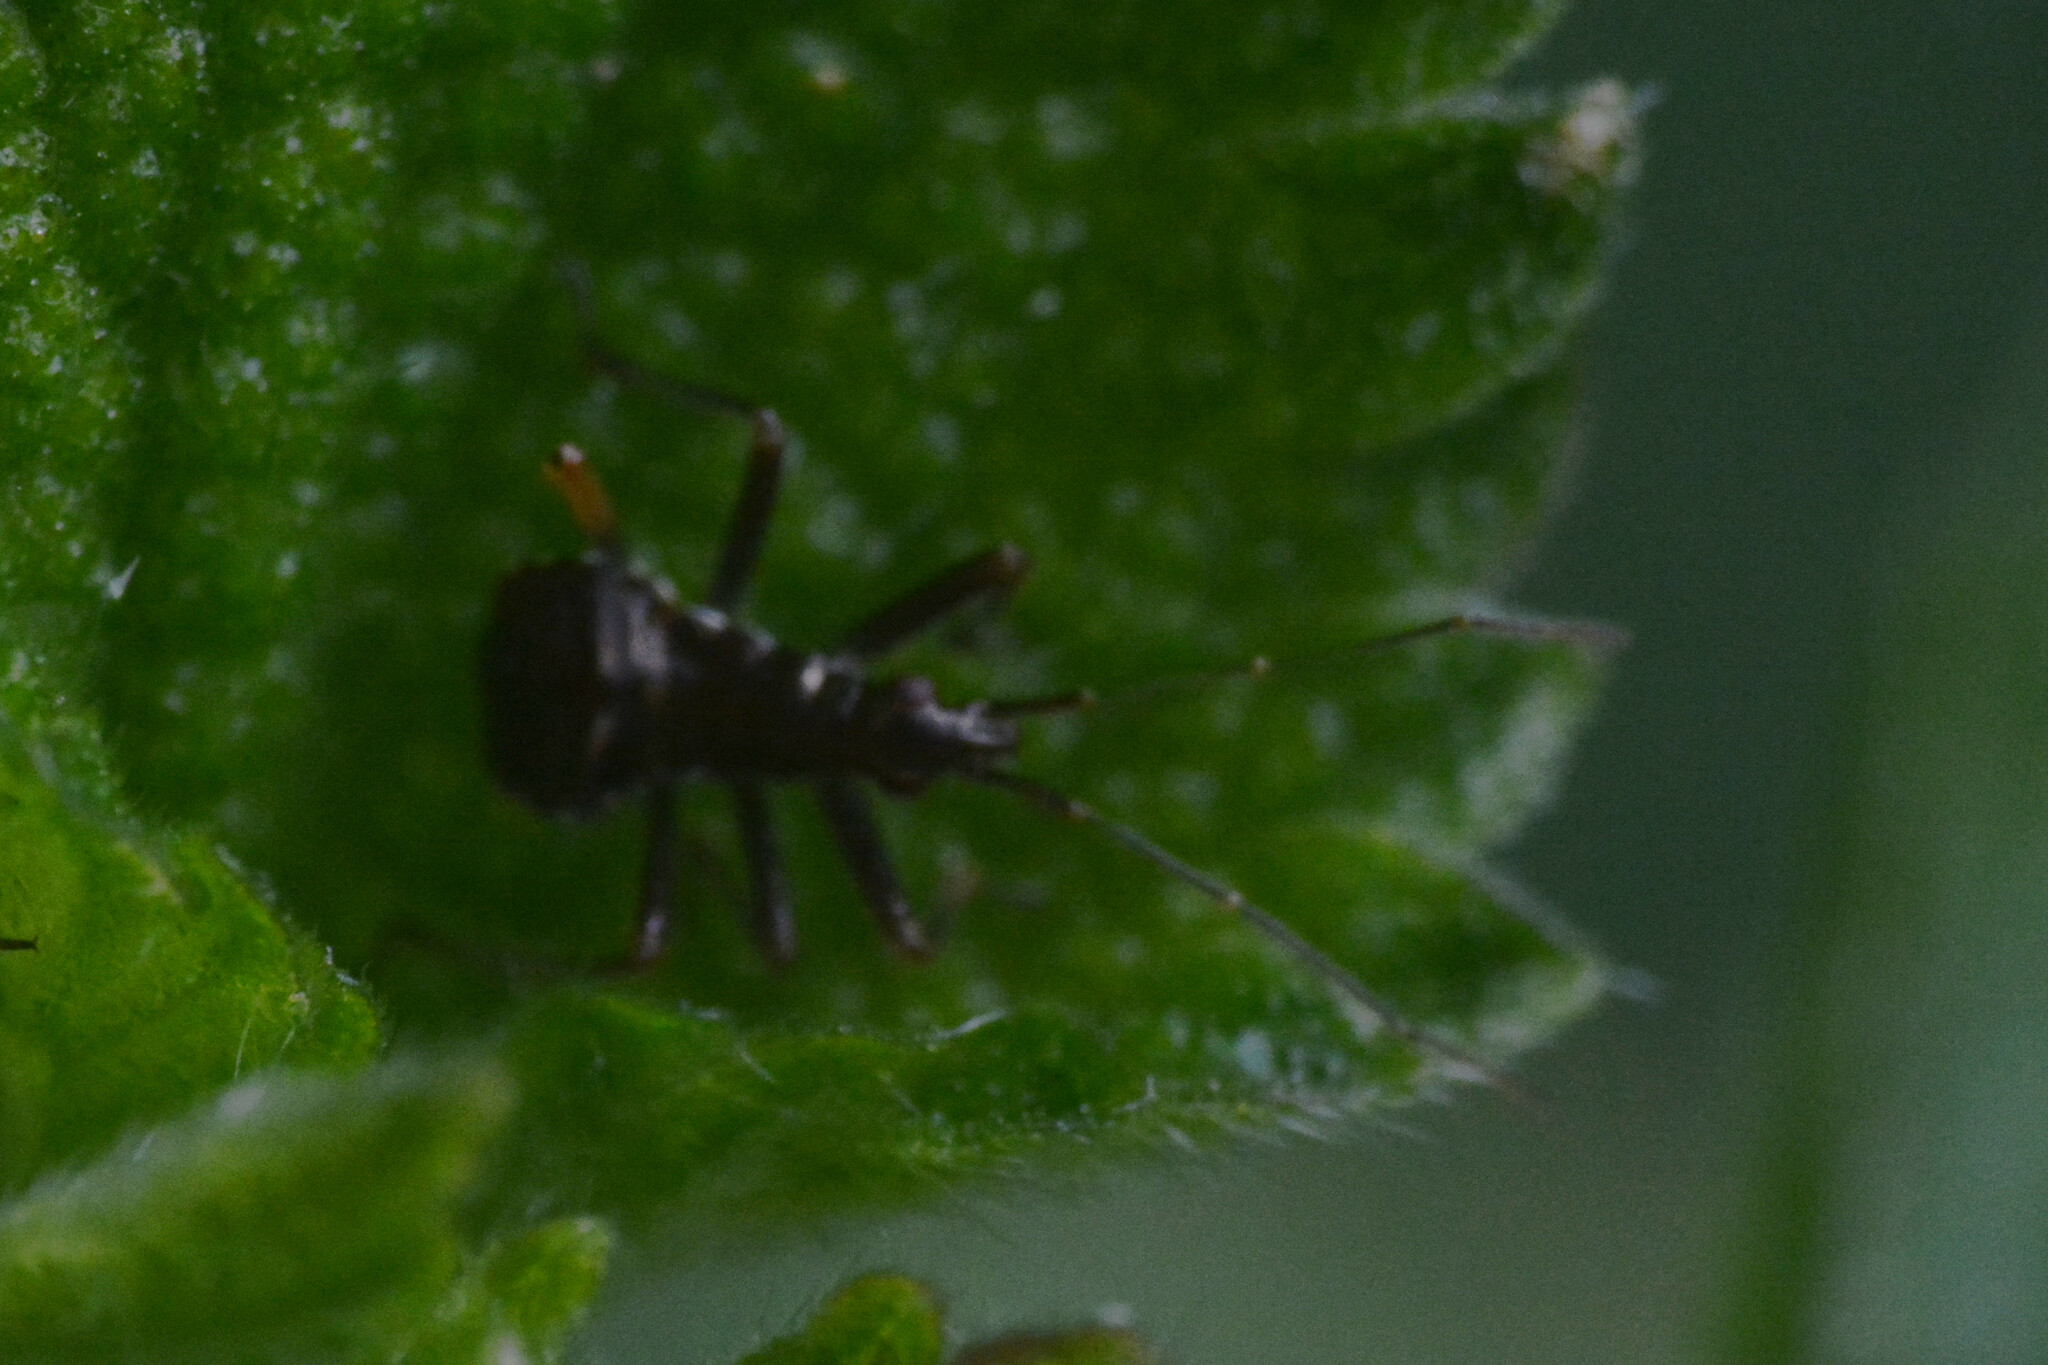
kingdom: Animalia
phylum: Arthropoda
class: Insecta
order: Hemiptera
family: Nabidae
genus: Himacerus
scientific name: Himacerus apterus
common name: Tree damsel bug
